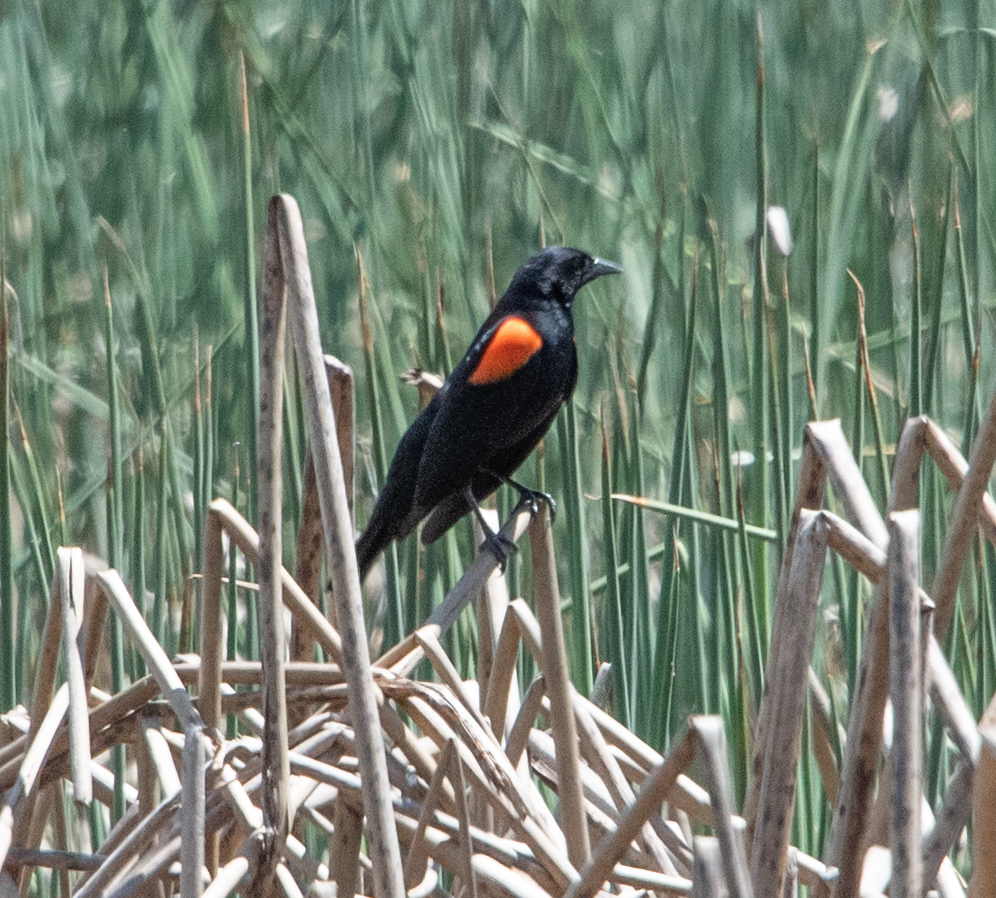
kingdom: Animalia
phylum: Chordata
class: Aves
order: Passeriformes
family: Icteridae
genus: Agelaius
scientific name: Agelaius phoeniceus
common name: Red-winged blackbird
